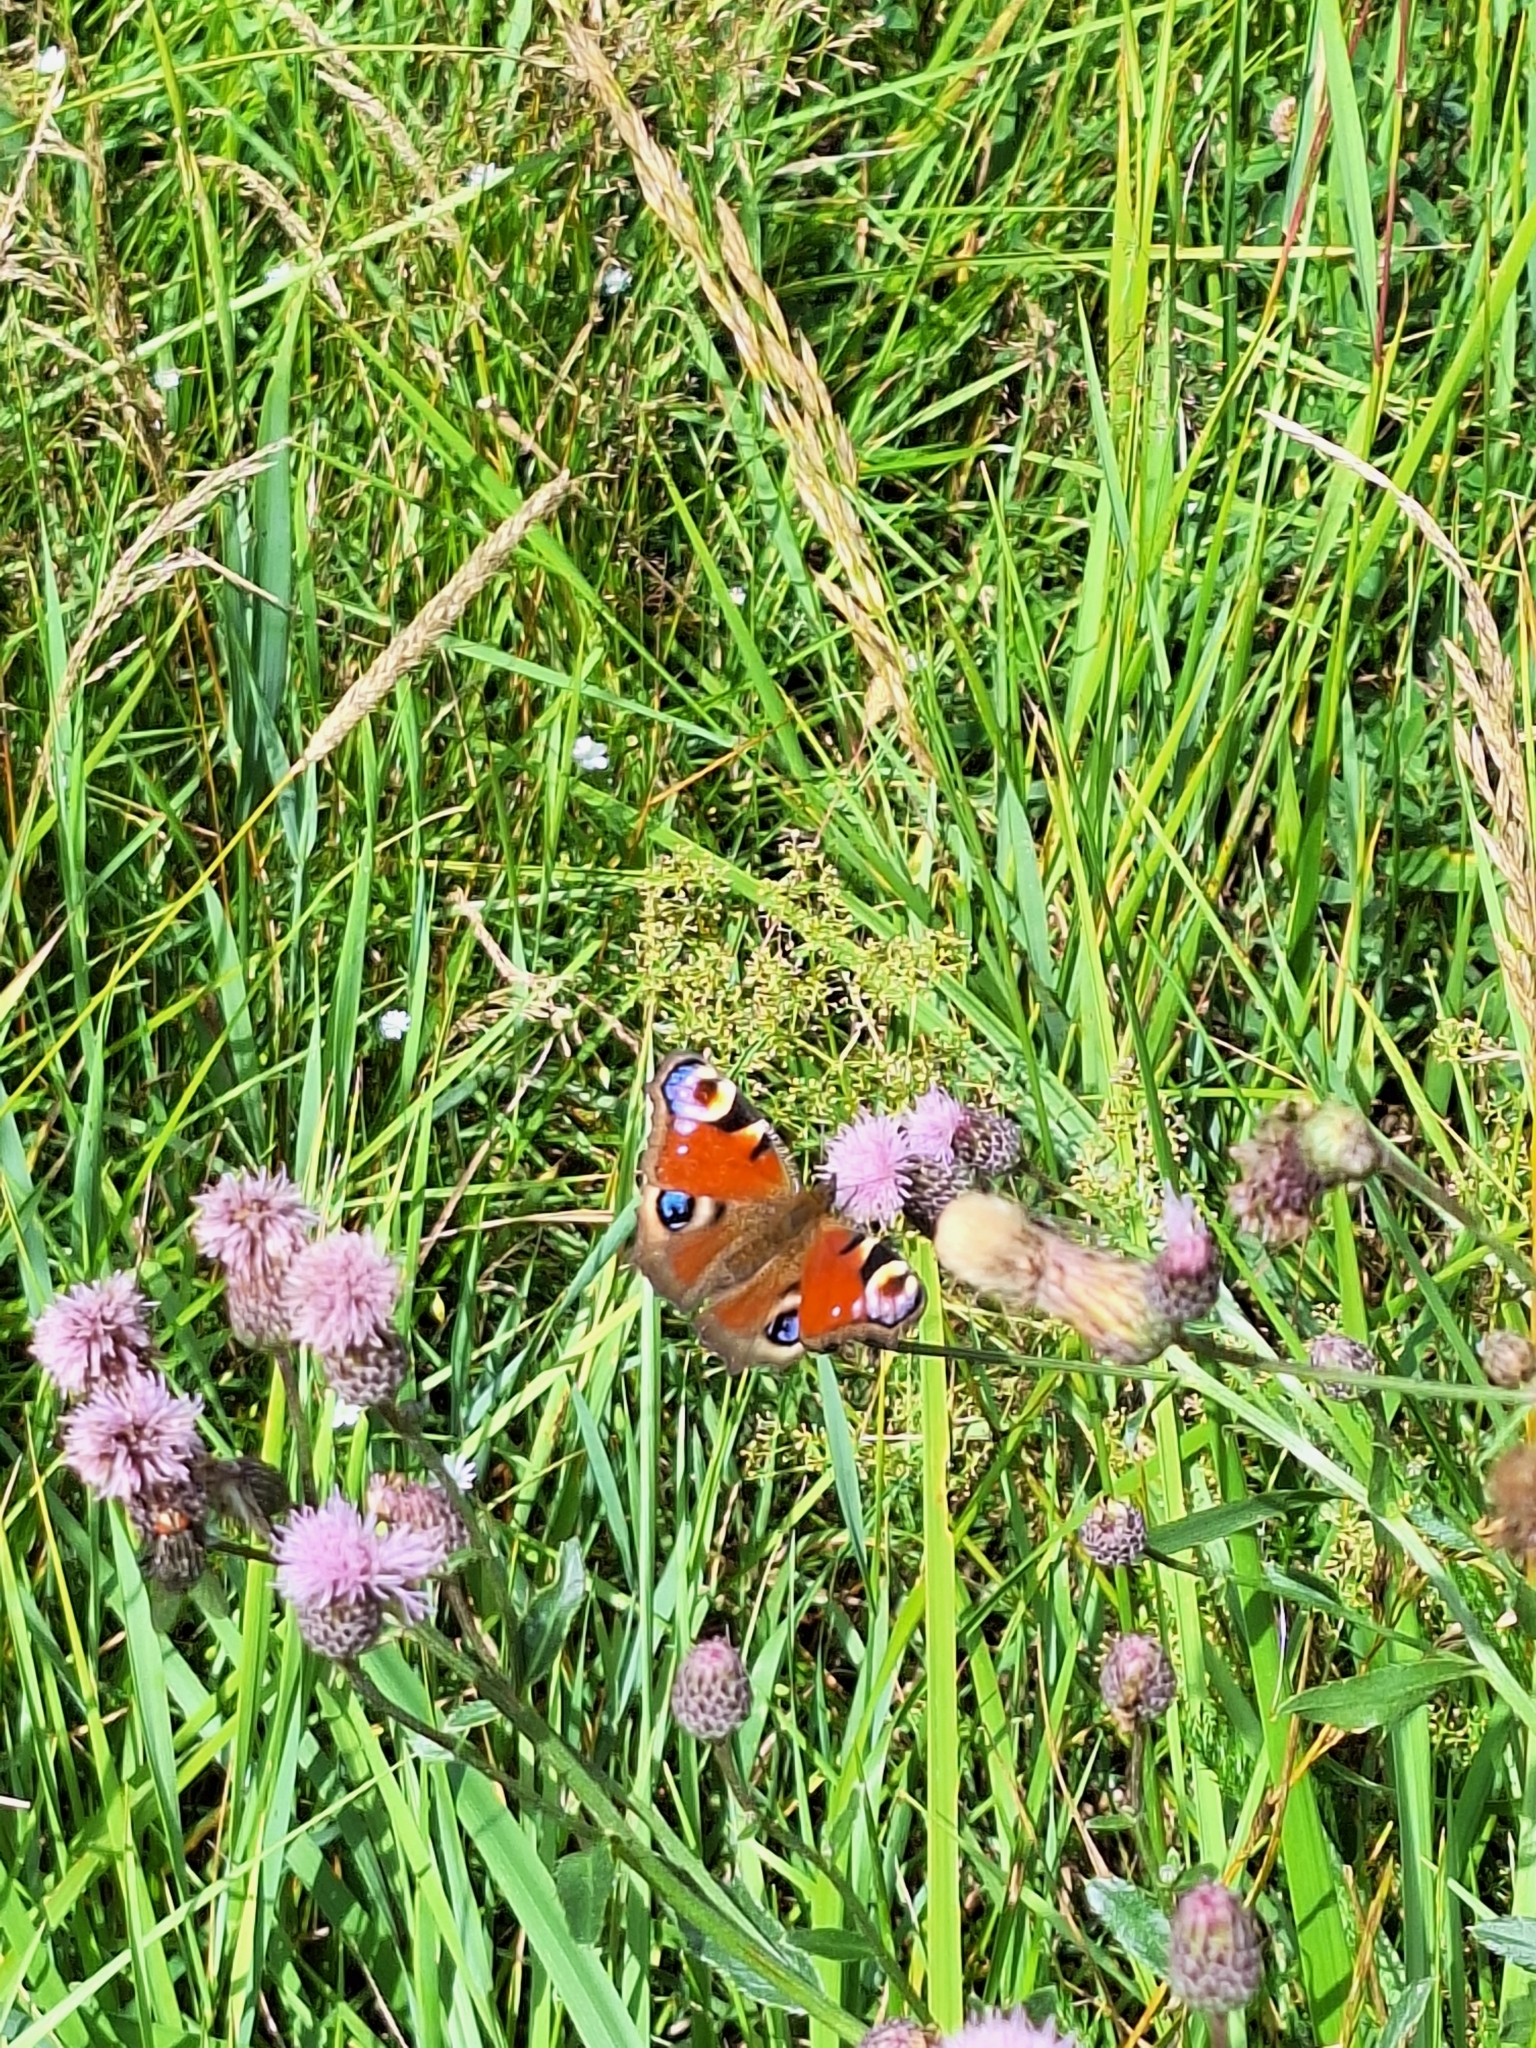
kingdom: Animalia
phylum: Arthropoda
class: Insecta
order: Lepidoptera
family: Nymphalidae
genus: Aglais
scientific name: Aglais io
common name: Peacock
